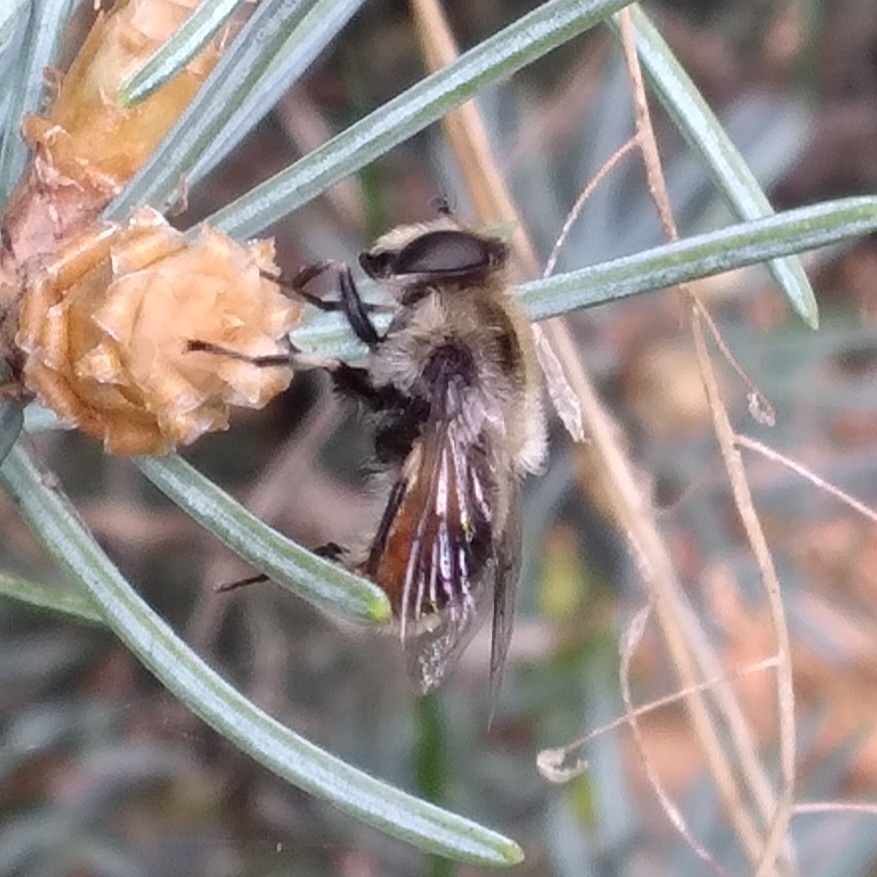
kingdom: Animalia
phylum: Arthropoda
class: Insecta
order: Diptera
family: Syrphidae
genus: Eristalis
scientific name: Eristalis anthophorina
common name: Orange-spotted drone fly
